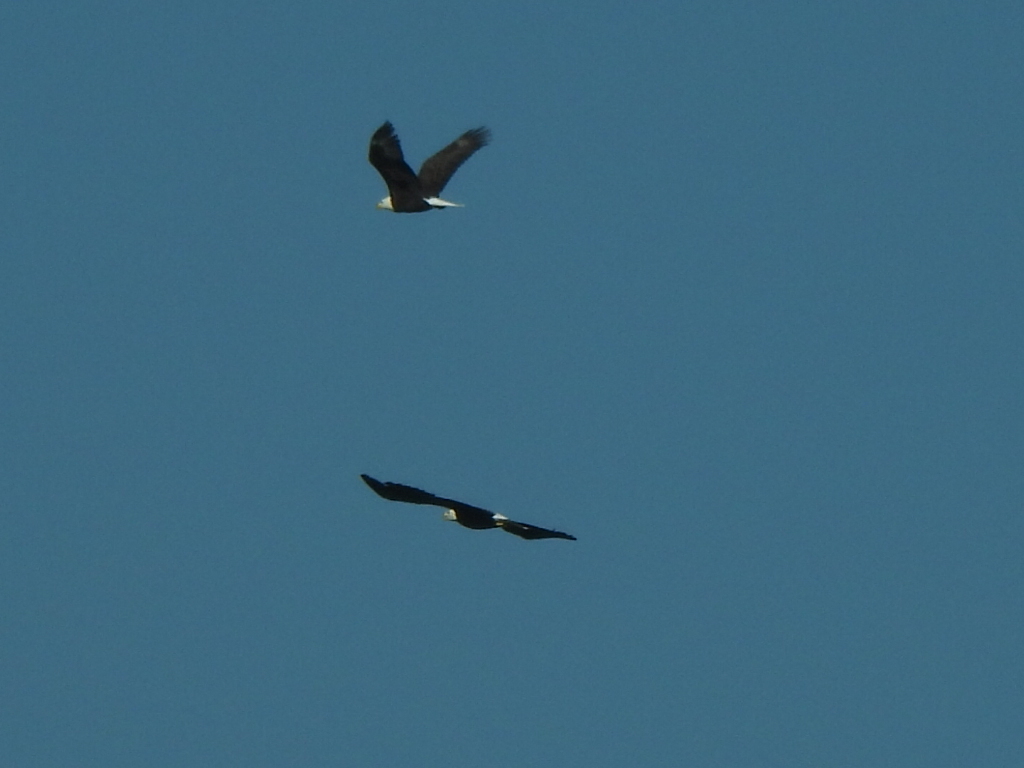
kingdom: Animalia
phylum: Chordata
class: Aves
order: Accipitriformes
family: Accipitridae
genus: Haliaeetus
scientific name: Haliaeetus leucocephalus
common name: Bald eagle
